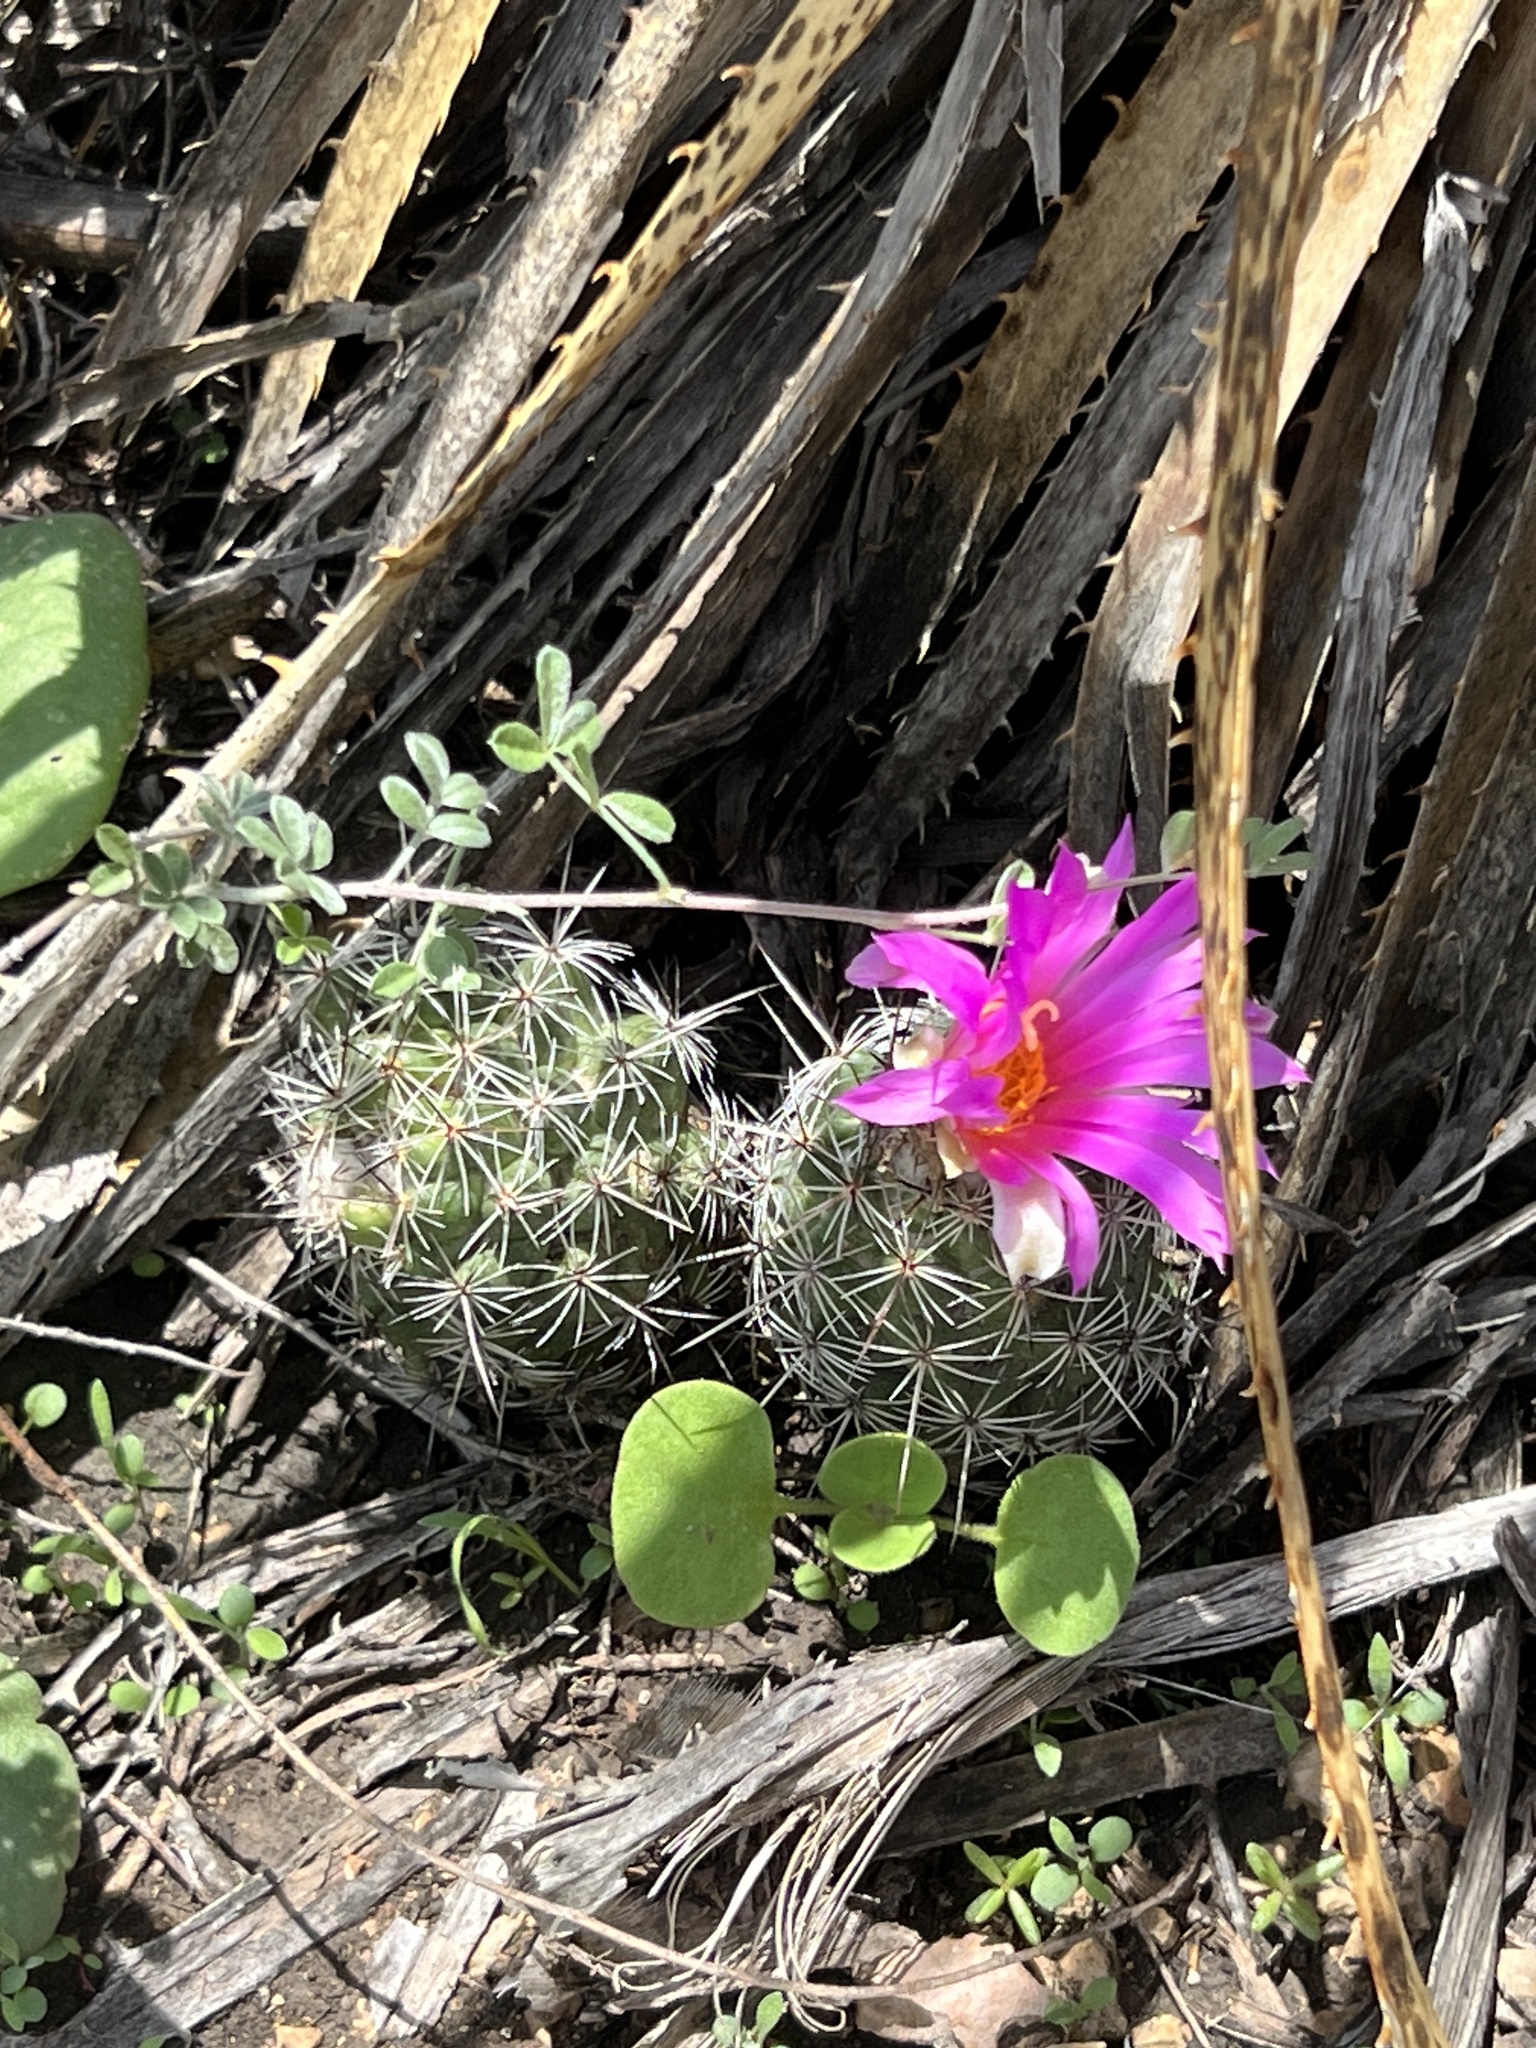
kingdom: Plantae
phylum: Tracheophyta
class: Magnoliopsida
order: Caryophyllales
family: Cactaceae
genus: Cochemiea
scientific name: Cochemiea conoidea
